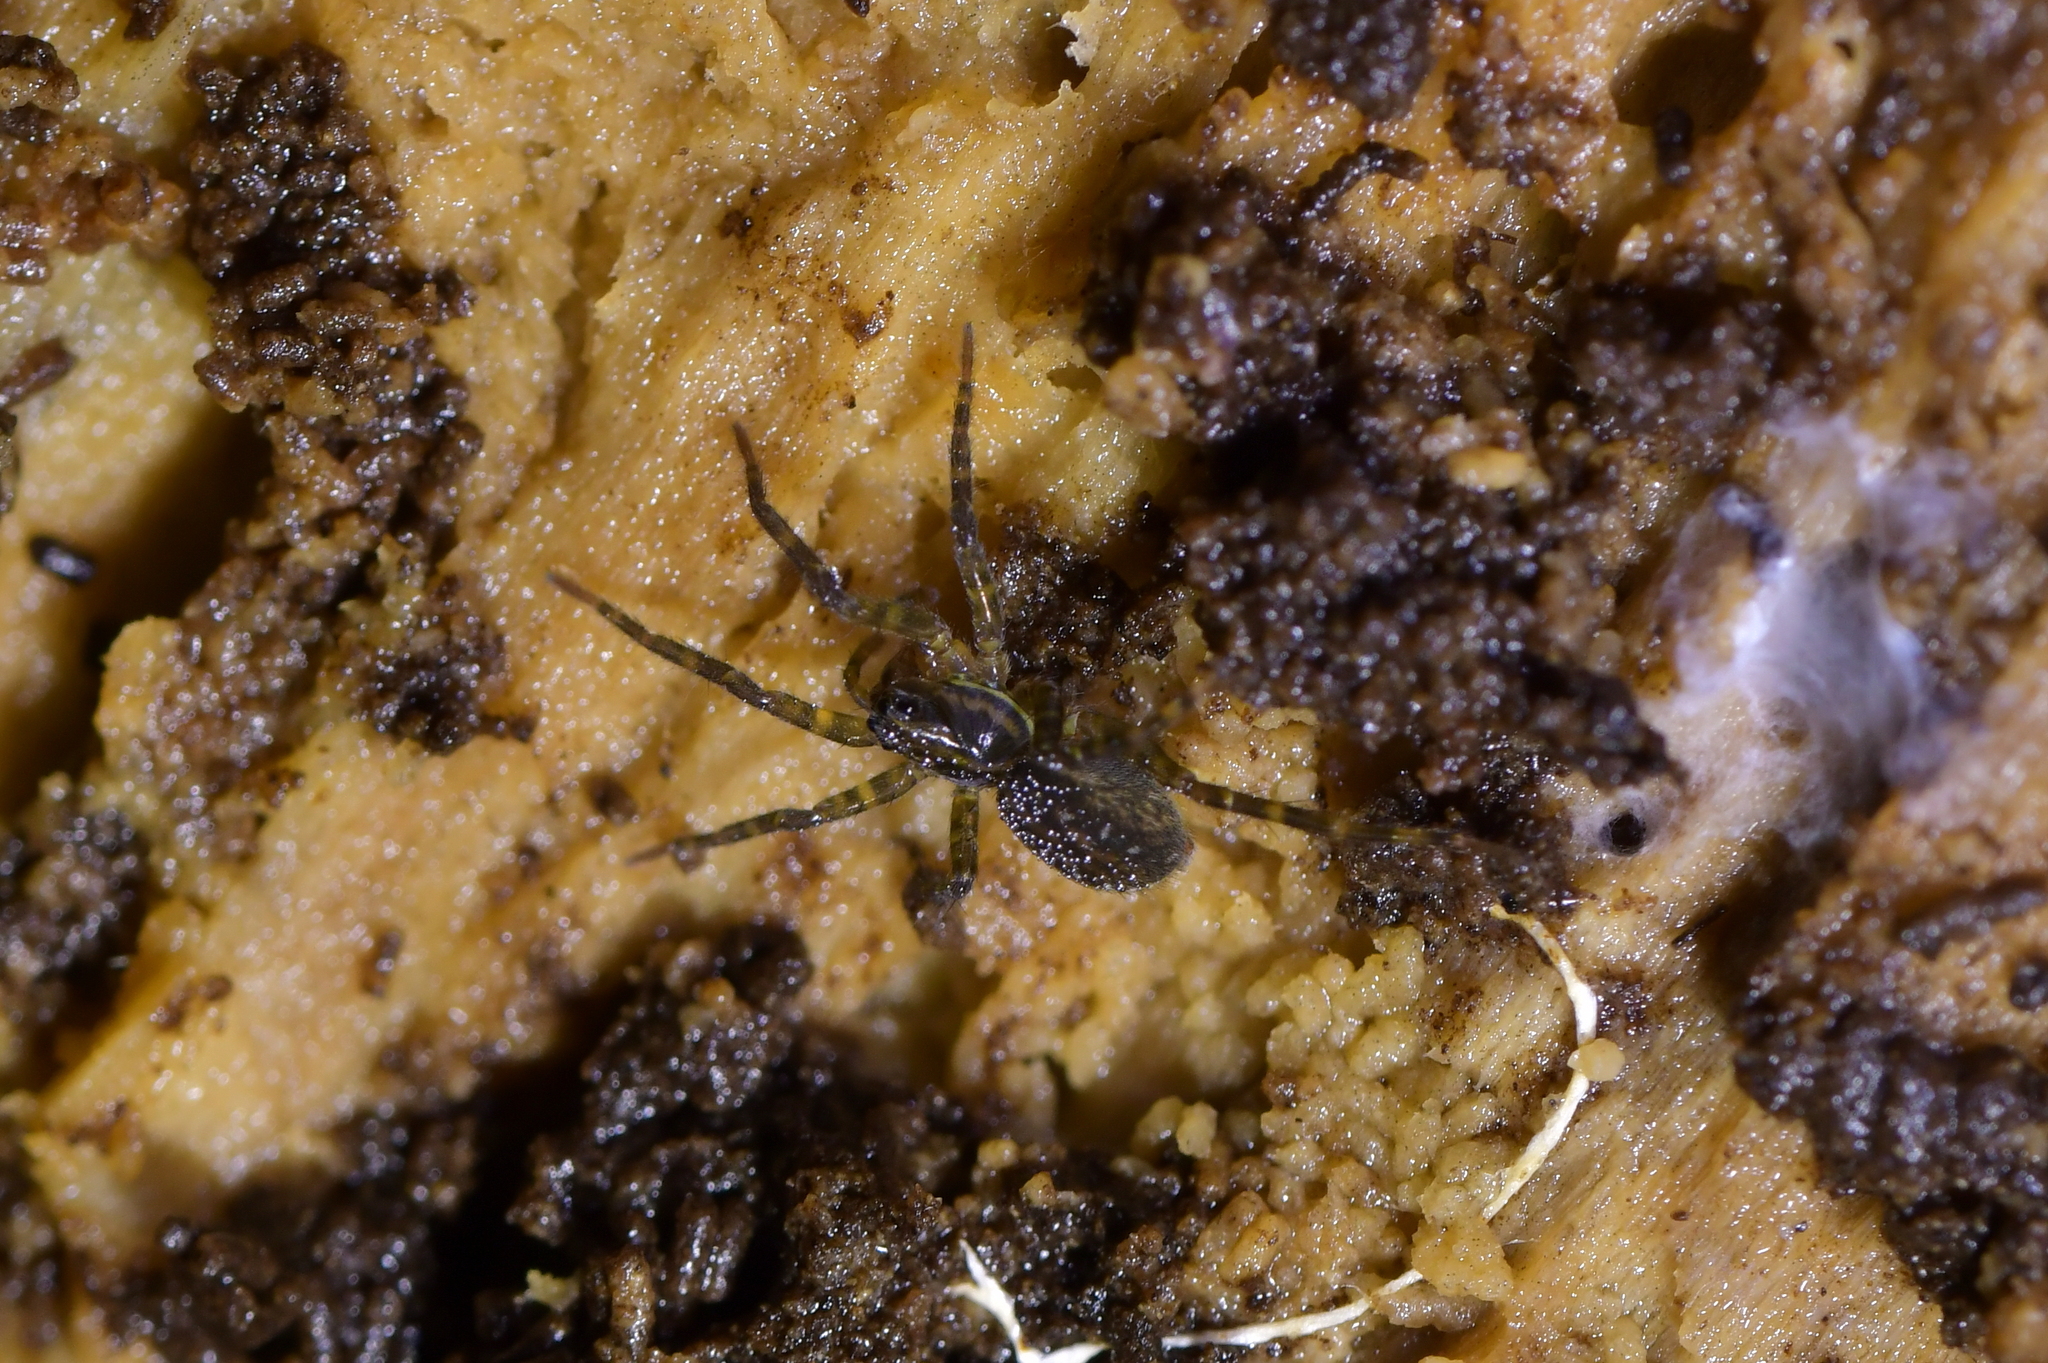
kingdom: Animalia
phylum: Arthropoda
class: Arachnida
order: Araneae
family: Lycosidae
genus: Allotrochosina
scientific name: Allotrochosina schauinslandi
